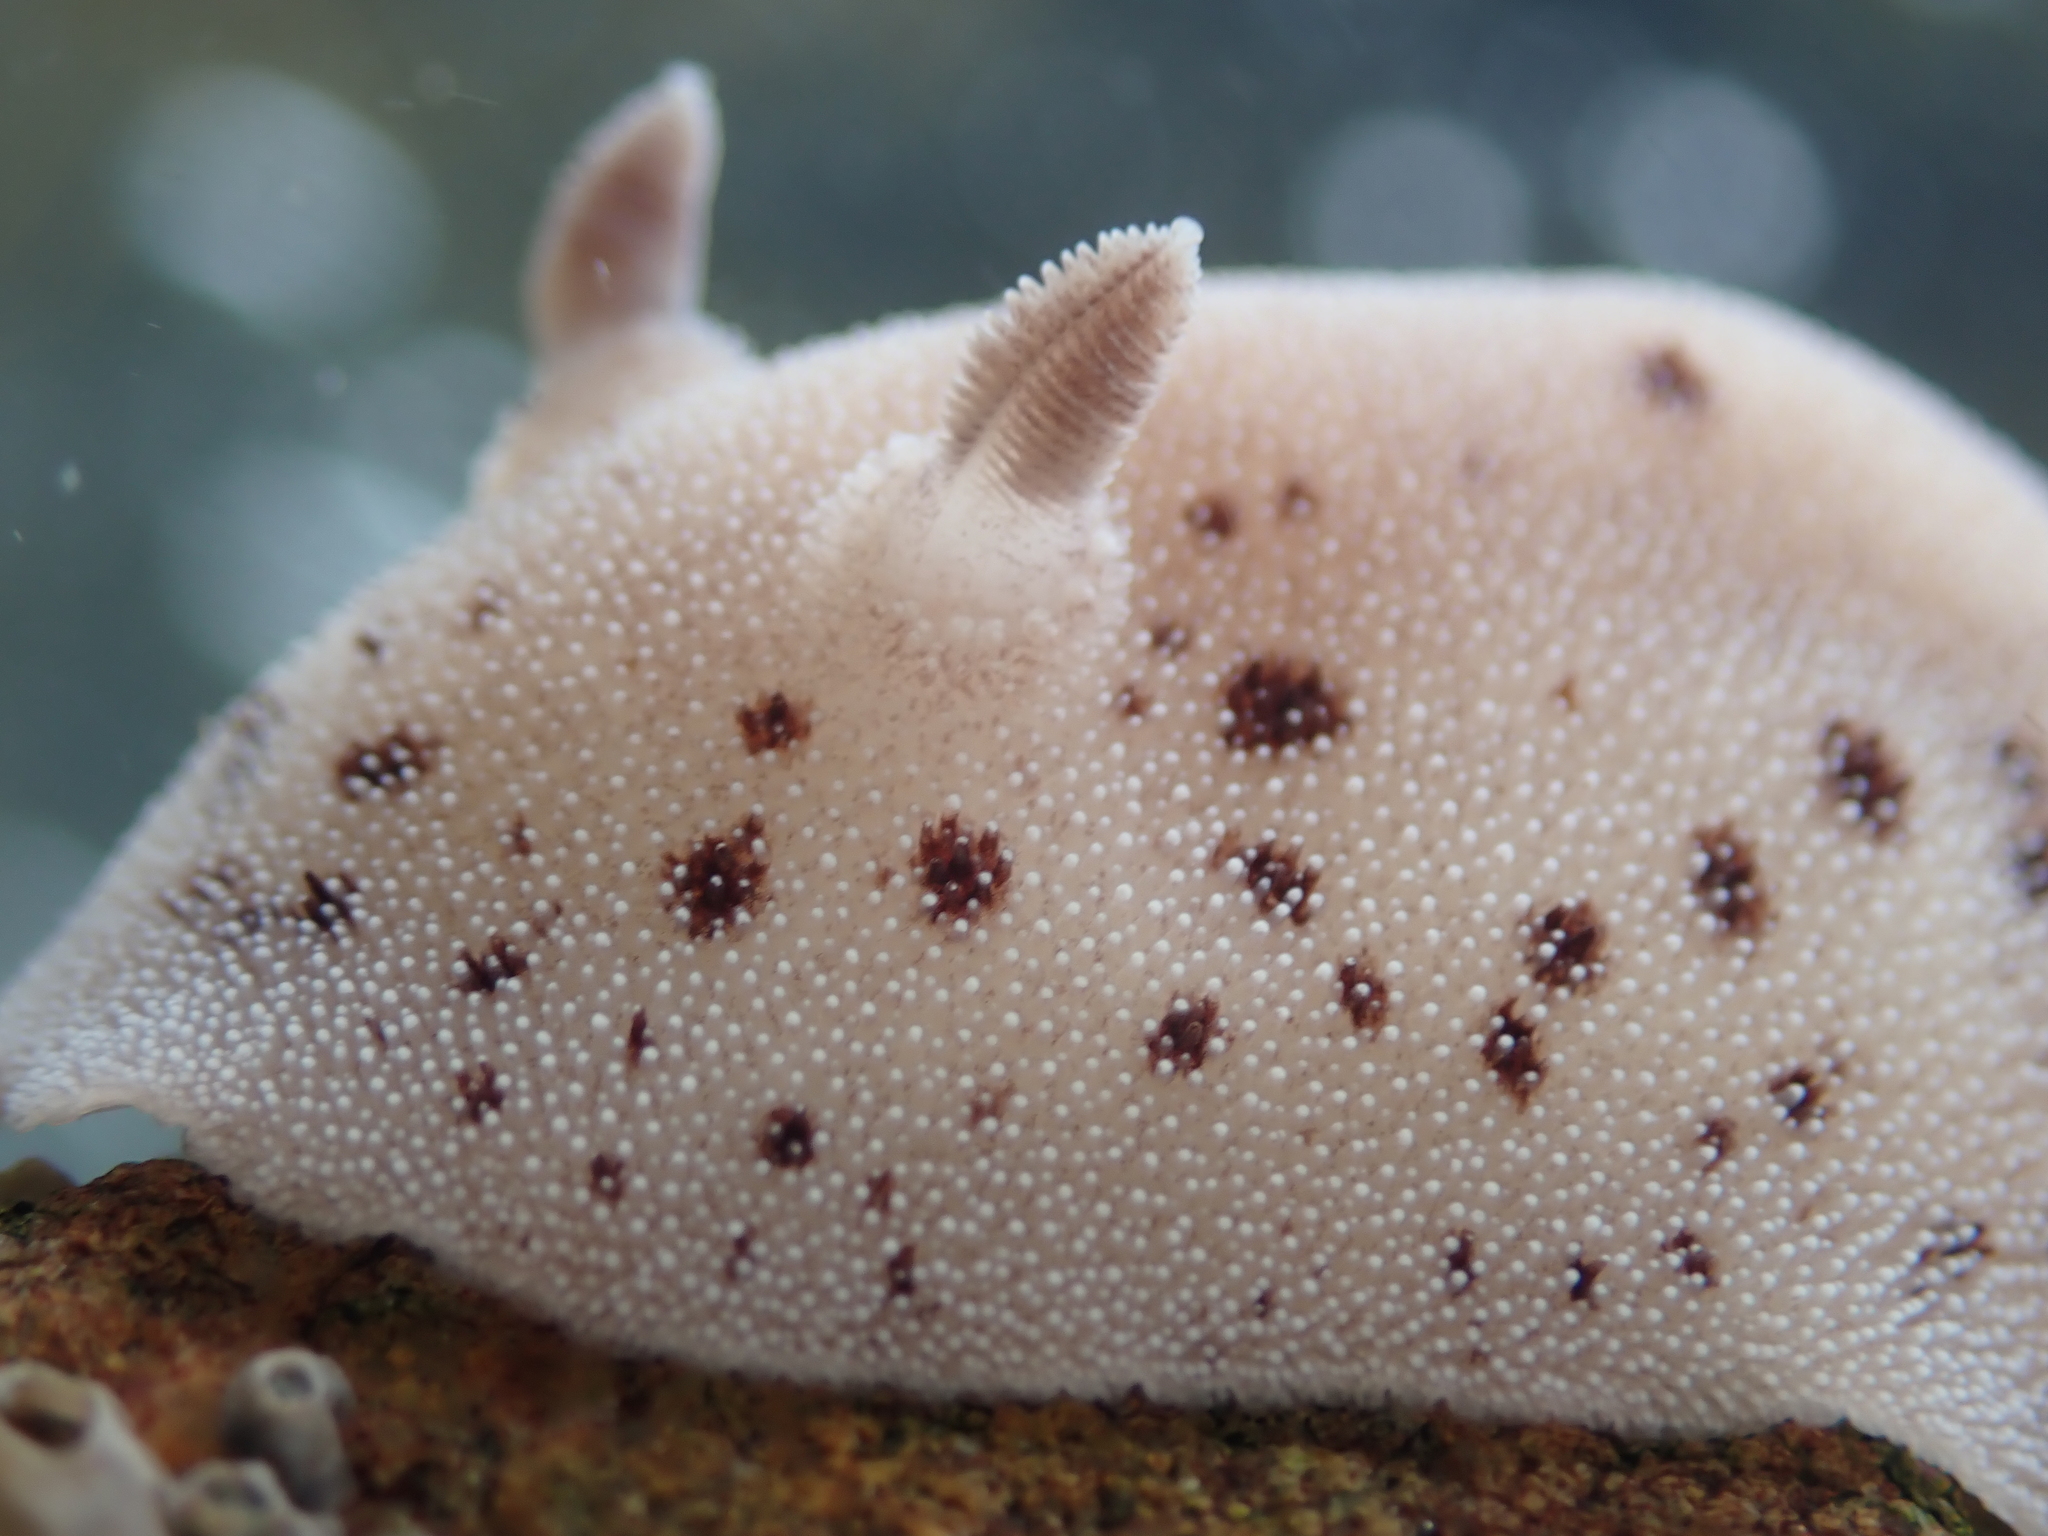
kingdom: Animalia
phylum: Mollusca
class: Gastropoda
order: Nudibranchia
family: Discodorididae
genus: Alloiodoris
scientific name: Alloiodoris lanuginata
